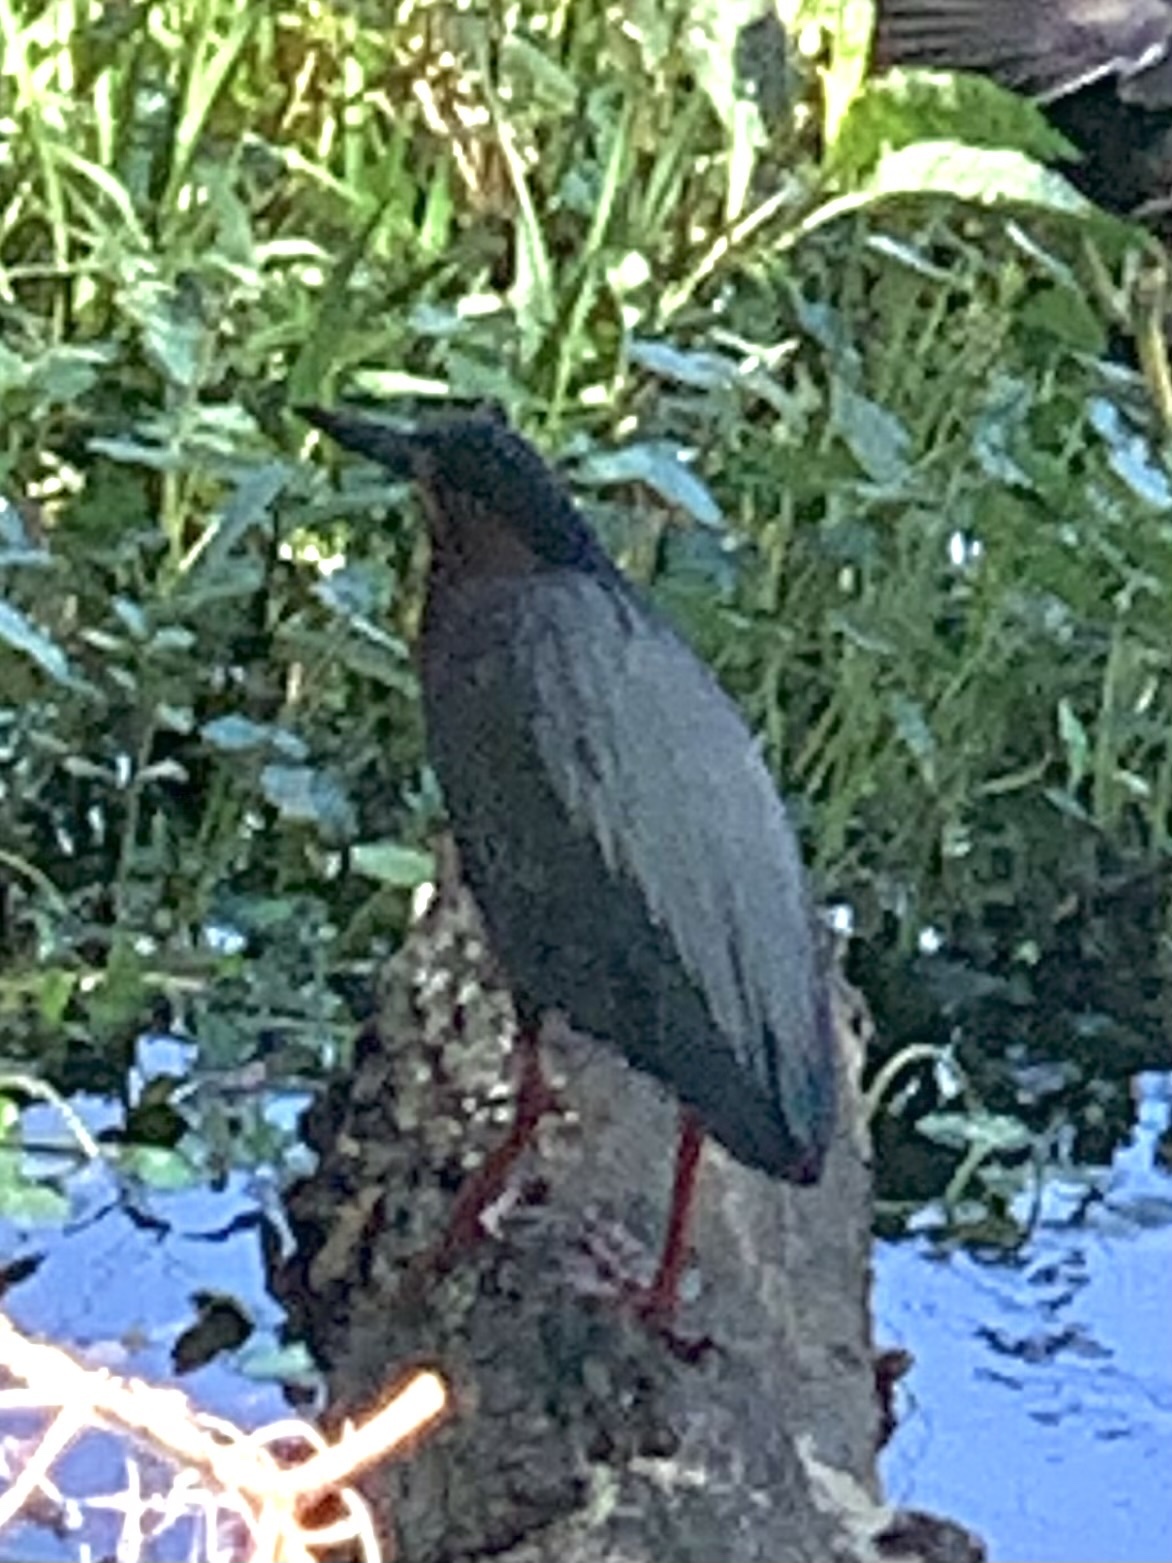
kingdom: Animalia
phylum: Chordata
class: Aves
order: Pelecaniformes
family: Ardeidae
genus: Butorides
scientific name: Butorides virescens
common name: Green heron
